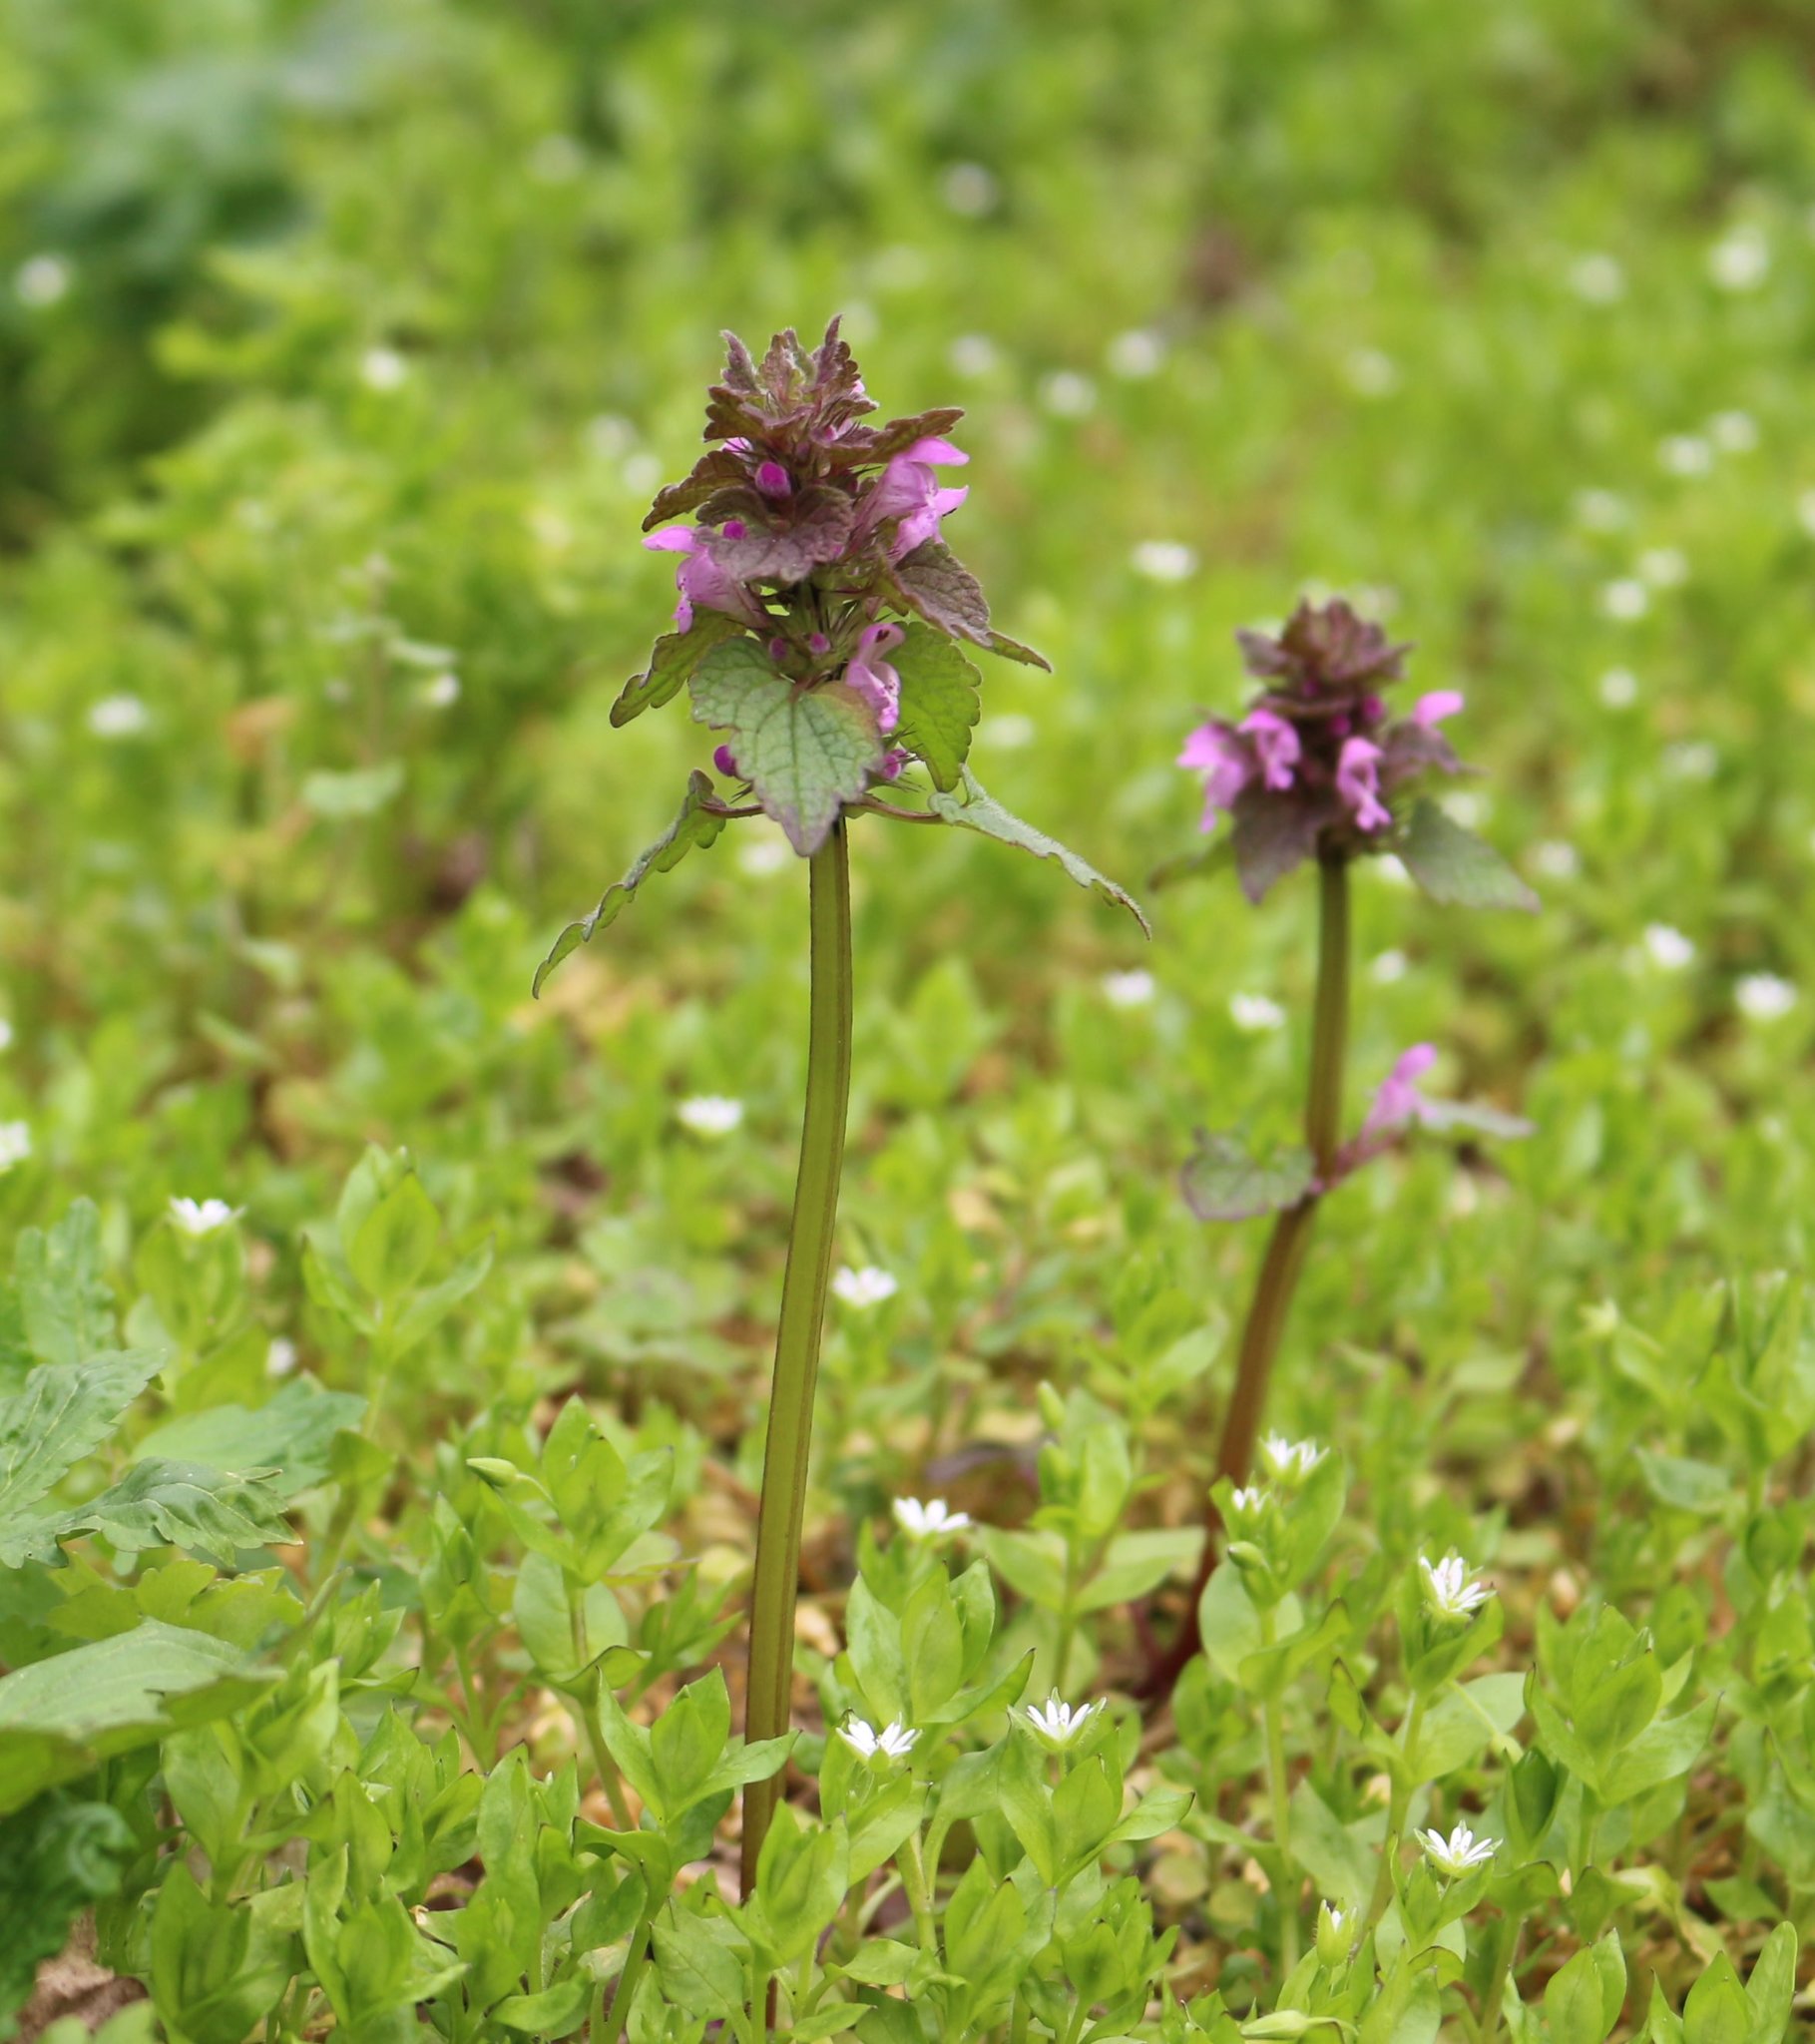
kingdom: Plantae
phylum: Tracheophyta
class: Magnoliopsida
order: Lamiales
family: Lamiaceae
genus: Lamium
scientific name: Lamium purpureum
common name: Red dead-nettle
